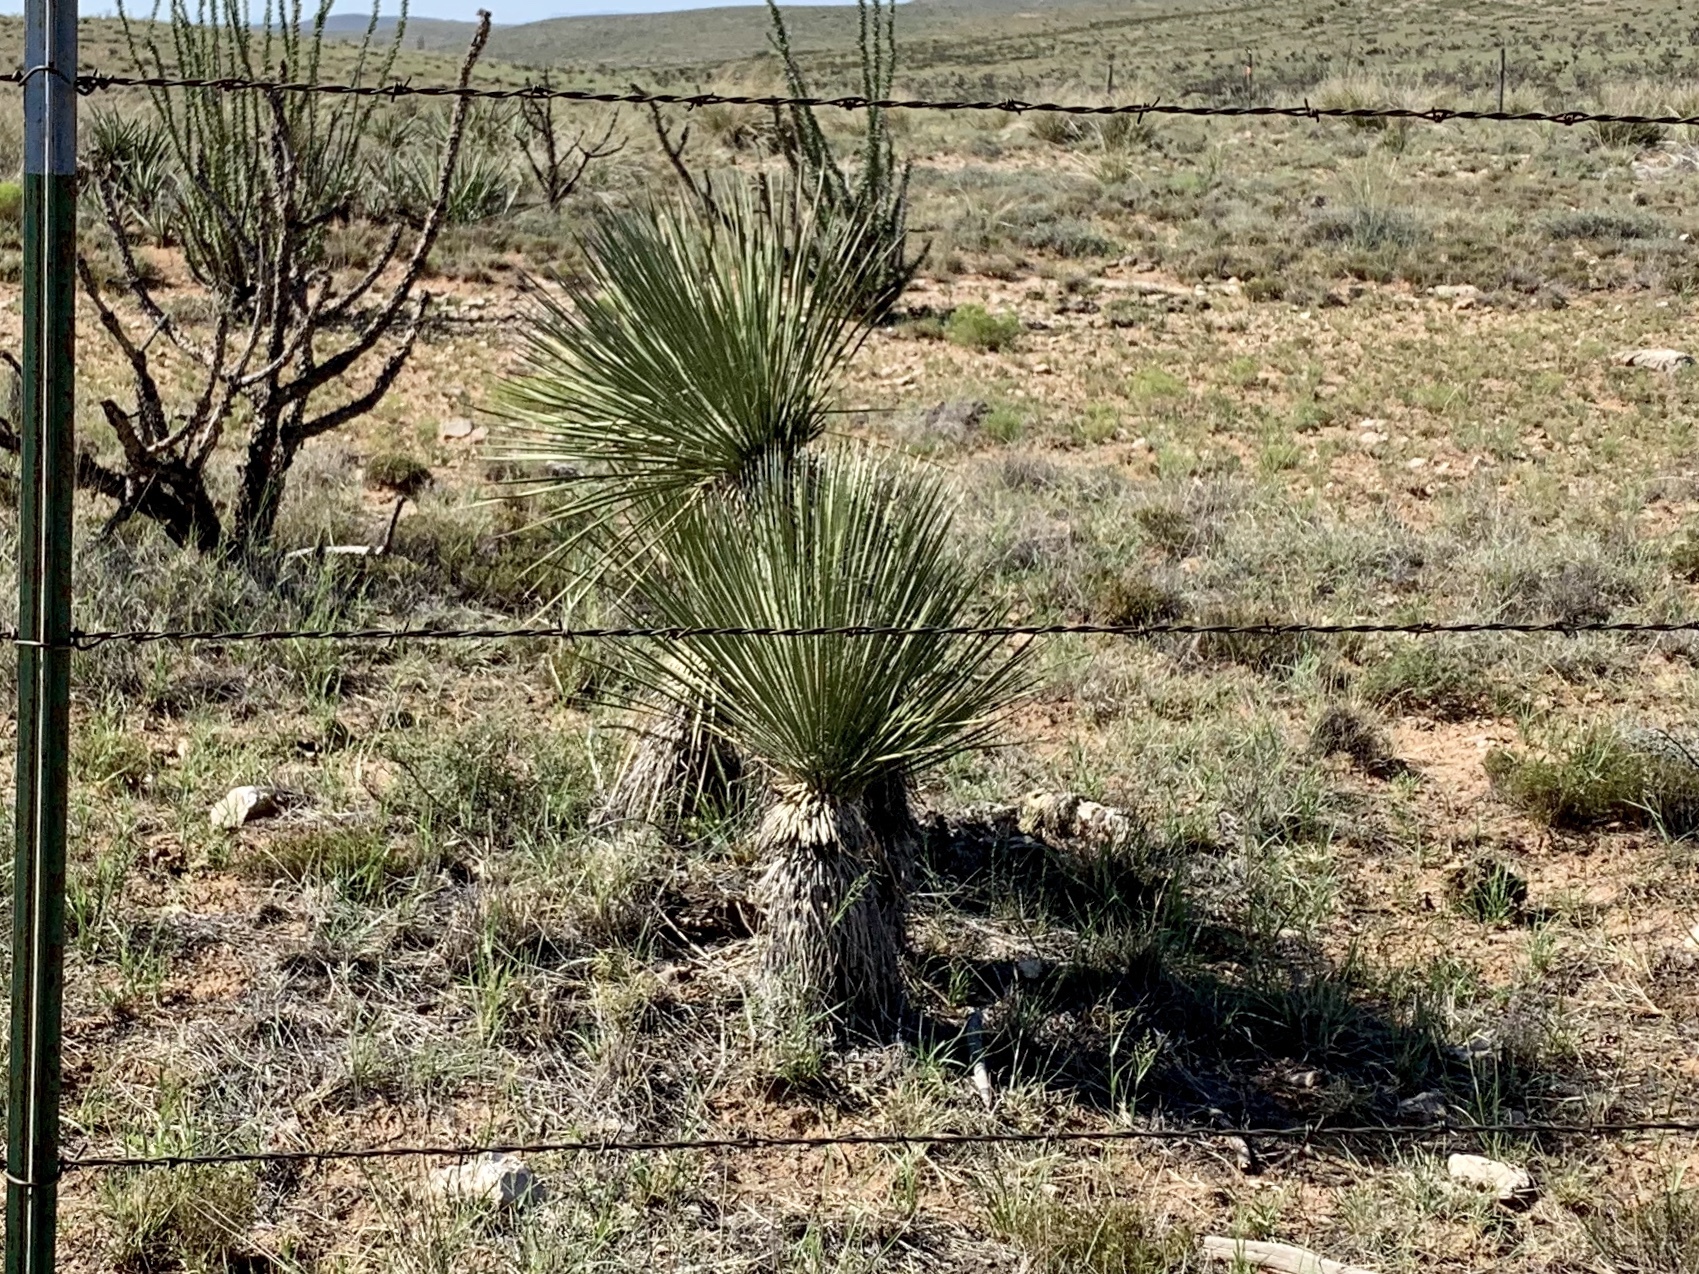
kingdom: Plantae
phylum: Tracheophyta
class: Liliopsida
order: Asparagales
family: Asparagaceae
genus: Yucca
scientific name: Yucca elata
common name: Palmella
